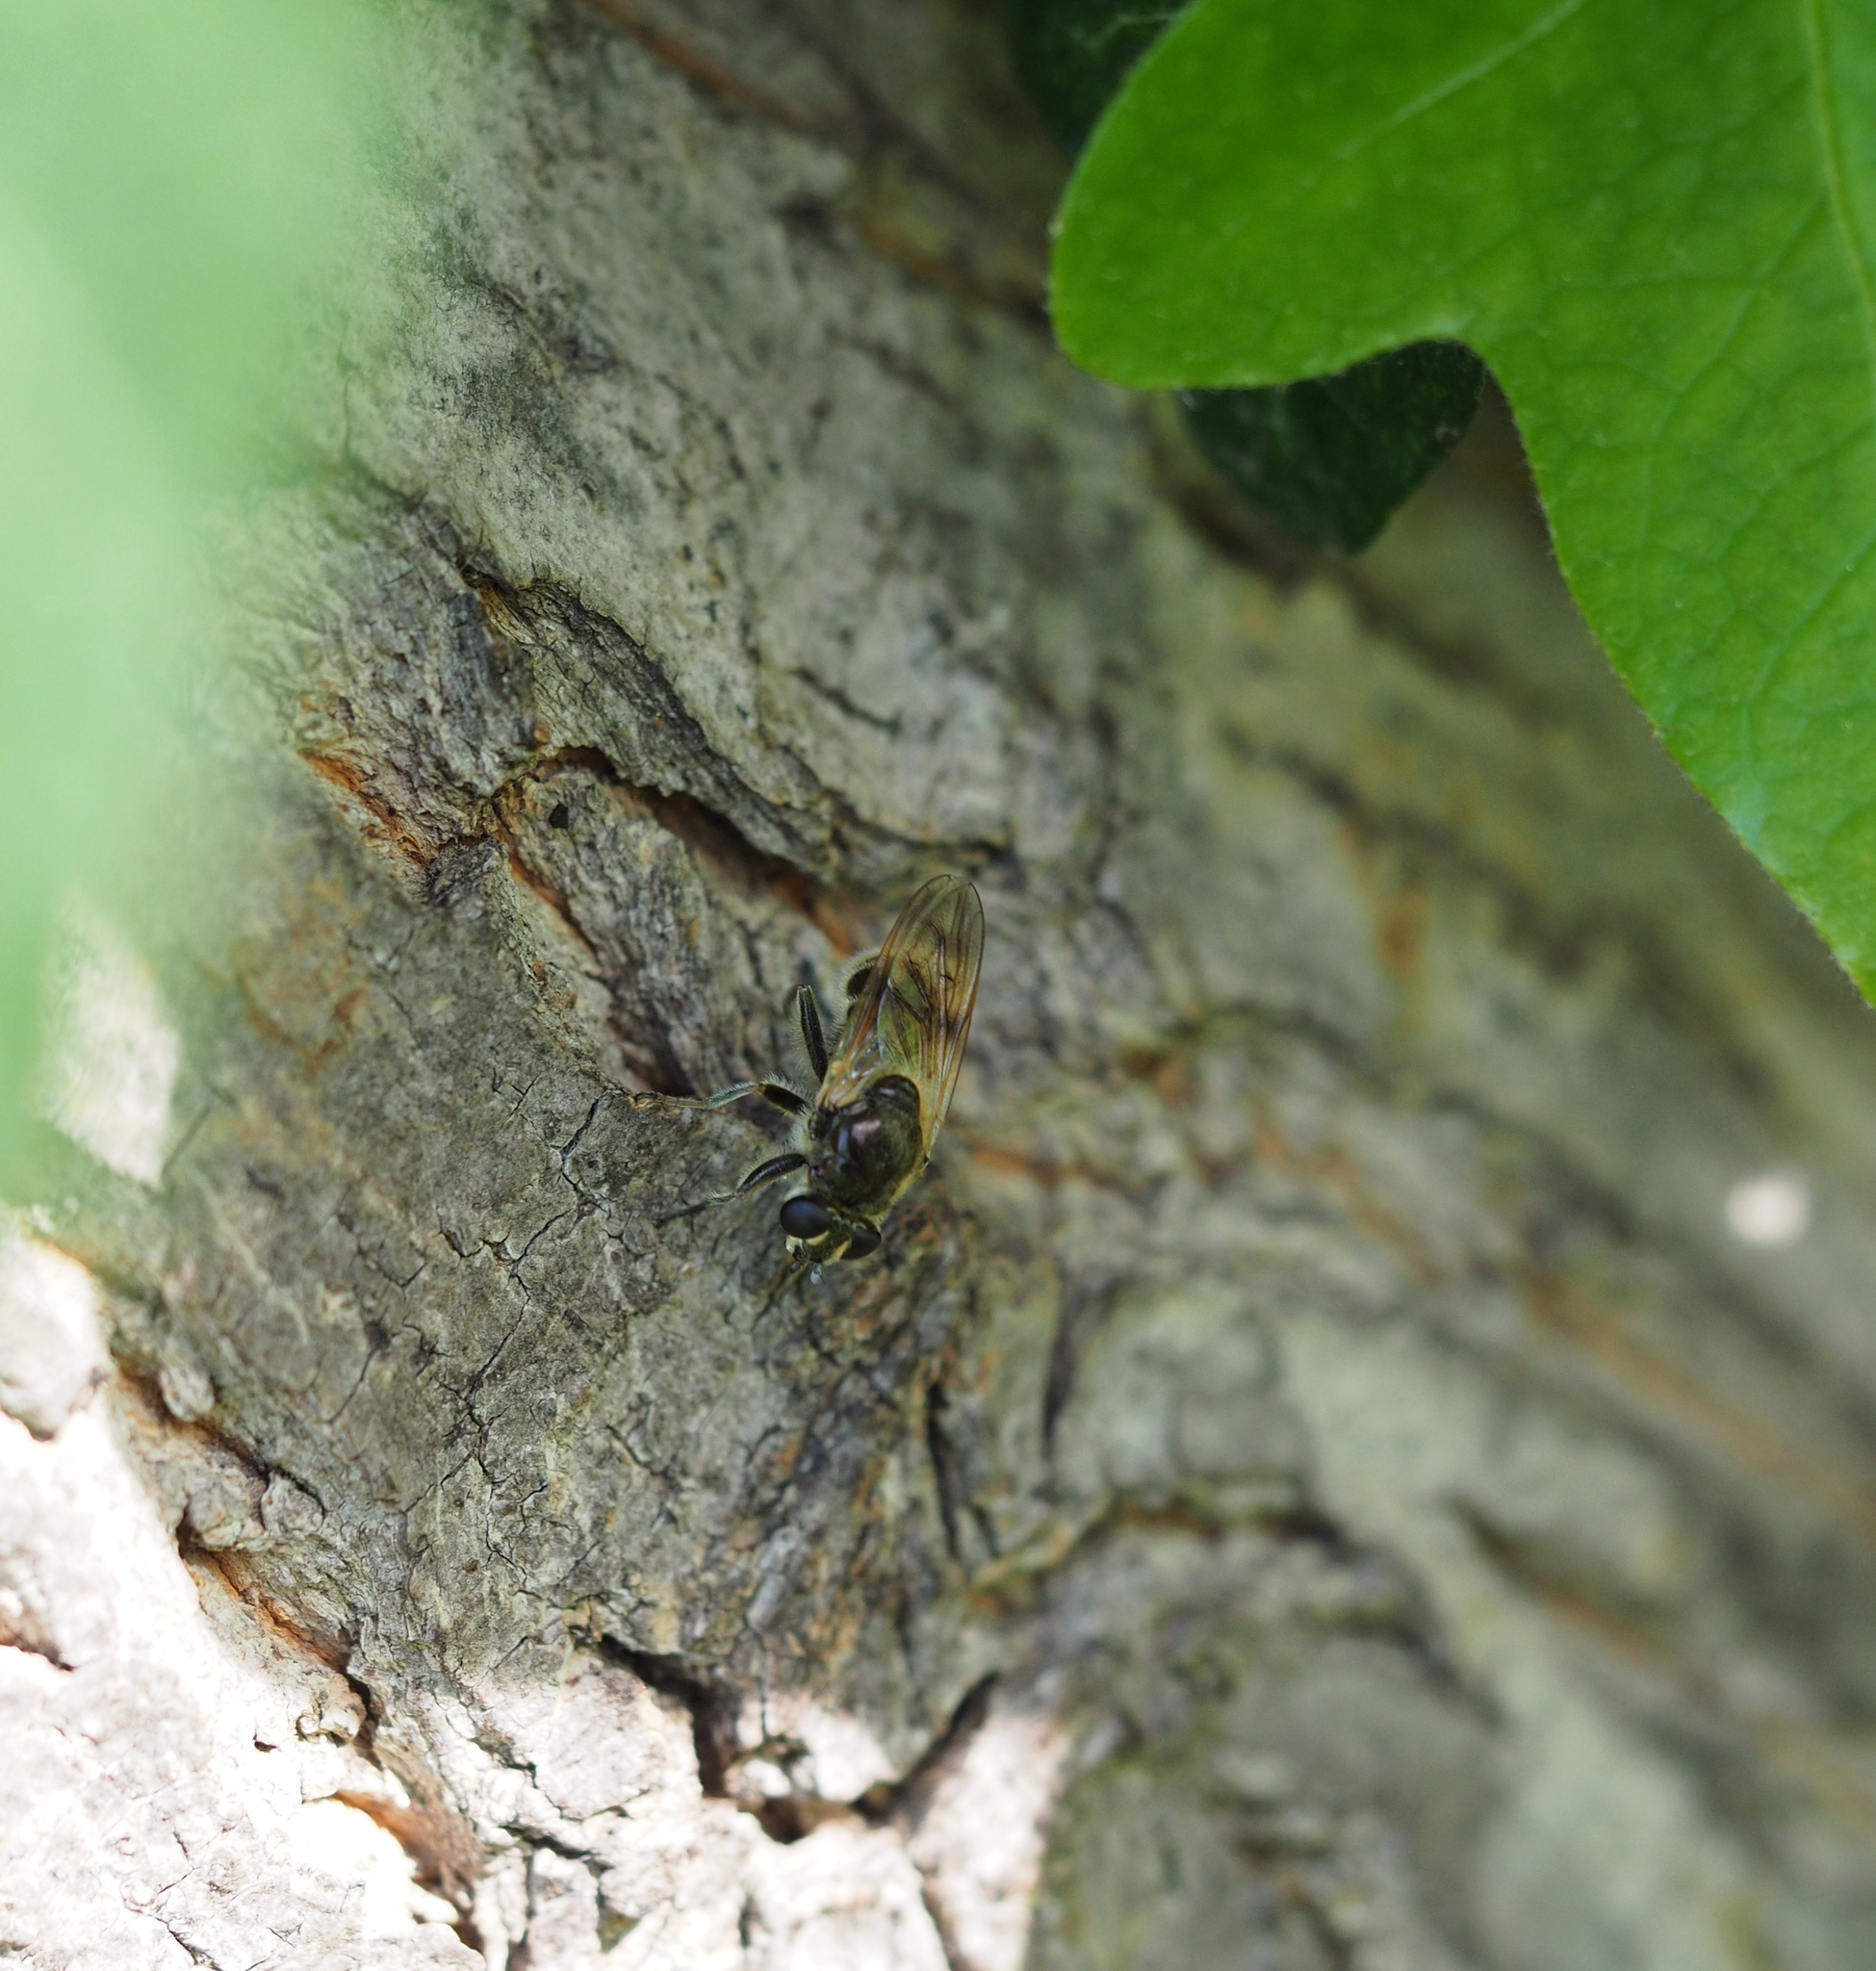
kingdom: Animalia
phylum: Arthropoda
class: Insecta
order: Diptera
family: Syrphidae
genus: Myolepta
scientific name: Myolepta obscura
